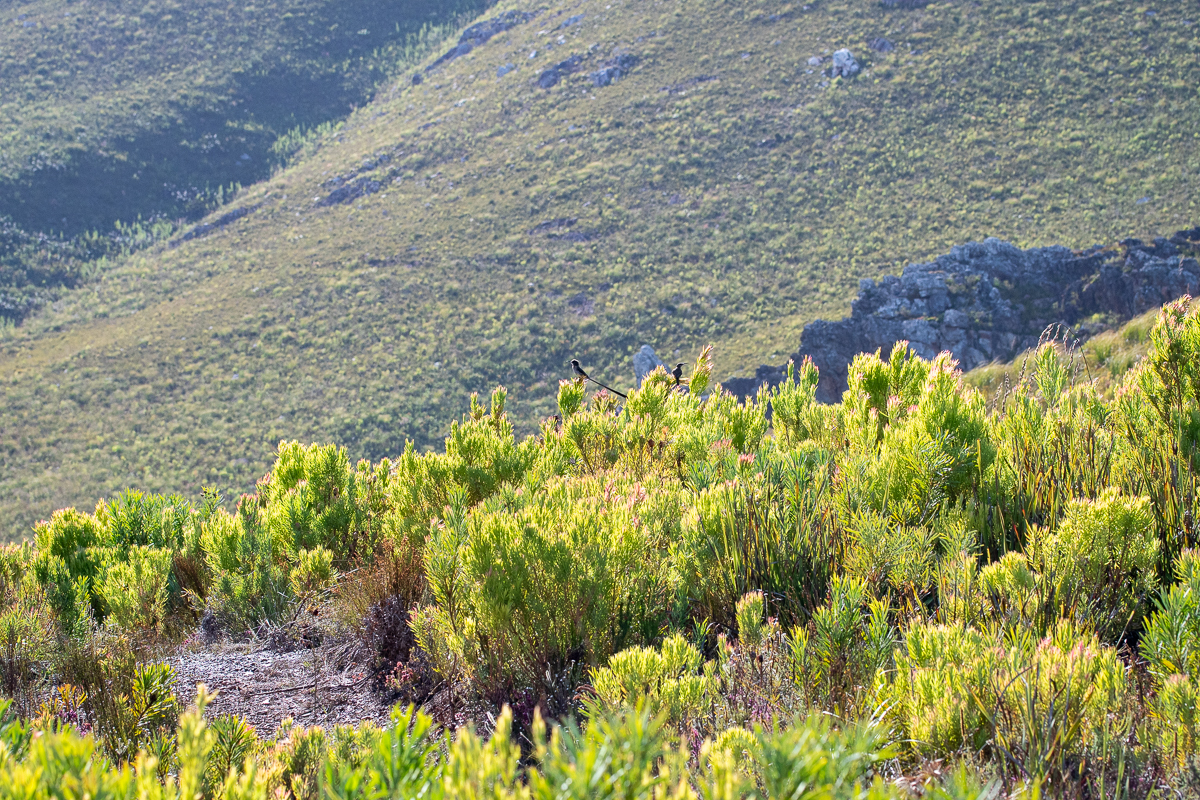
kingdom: Animalia
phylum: Chordata
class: Aves
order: Passeriformes
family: Promeropidae
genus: Promerops
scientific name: Promerops cafer
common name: Cape sugarbird
